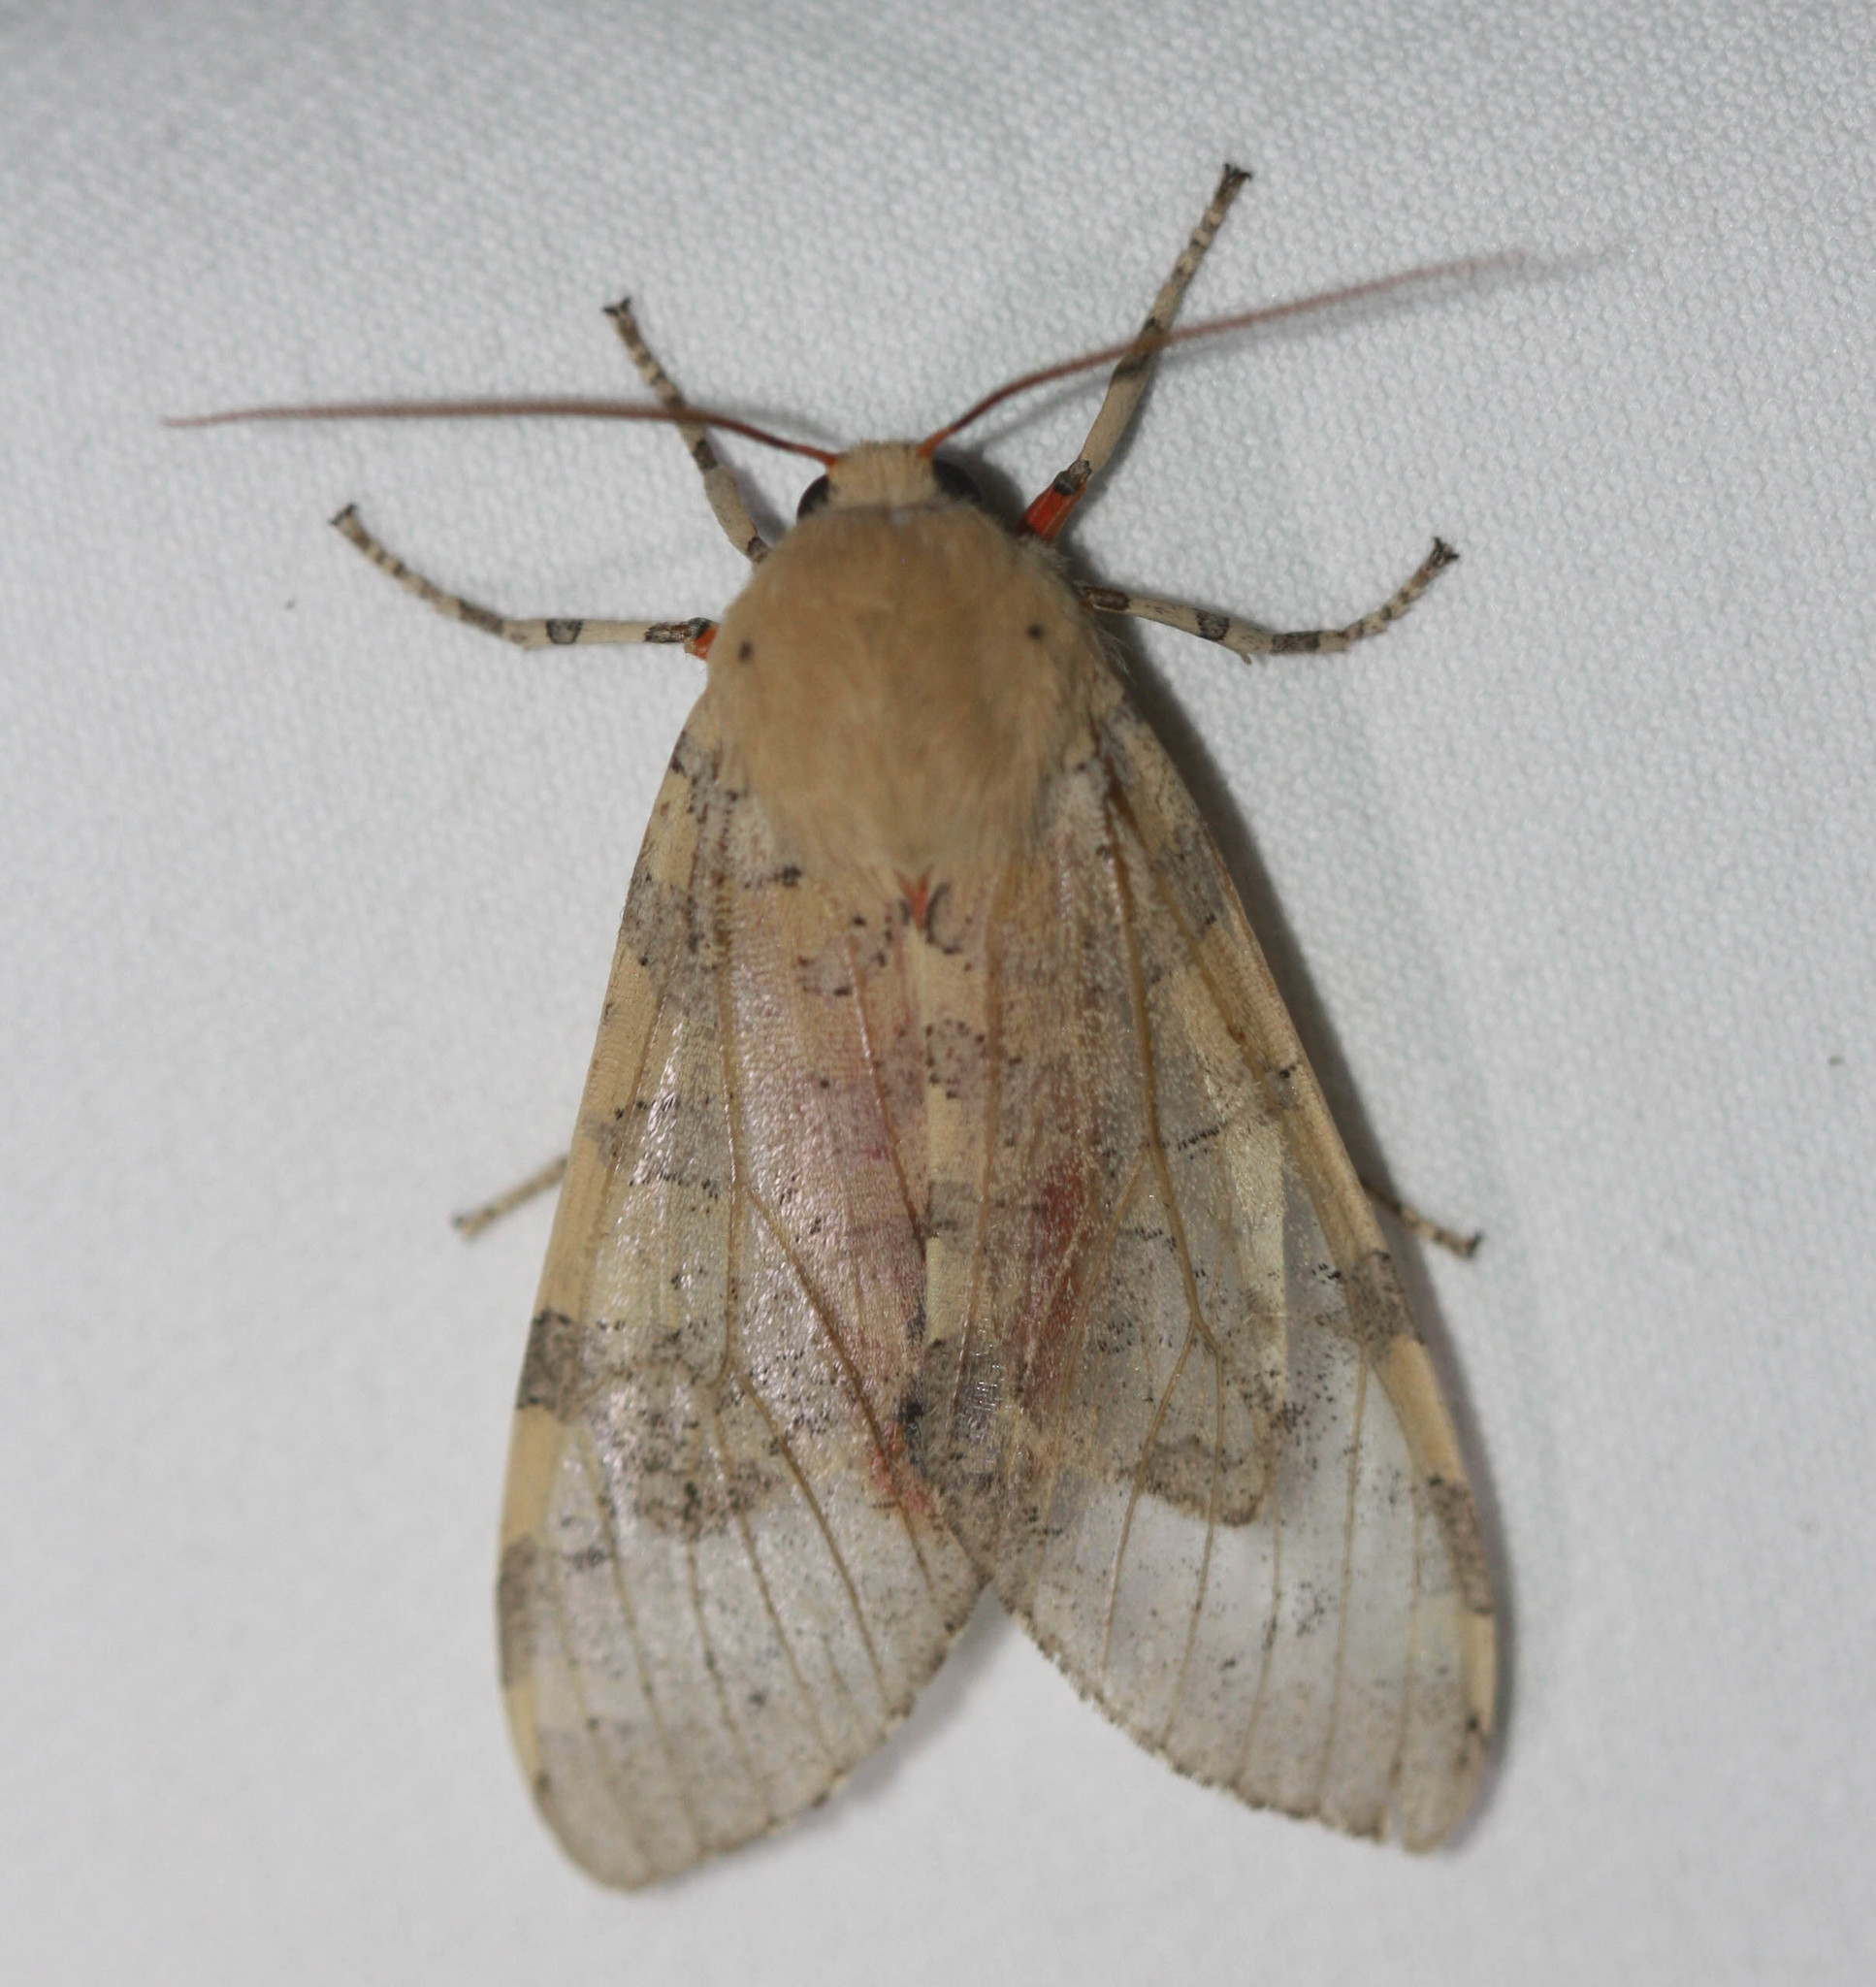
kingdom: Animalia
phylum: Arthropoda
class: Insecta
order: Lepidoptera
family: Erebidae
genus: Hemihyalea
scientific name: Hemihyalea edwardsii
